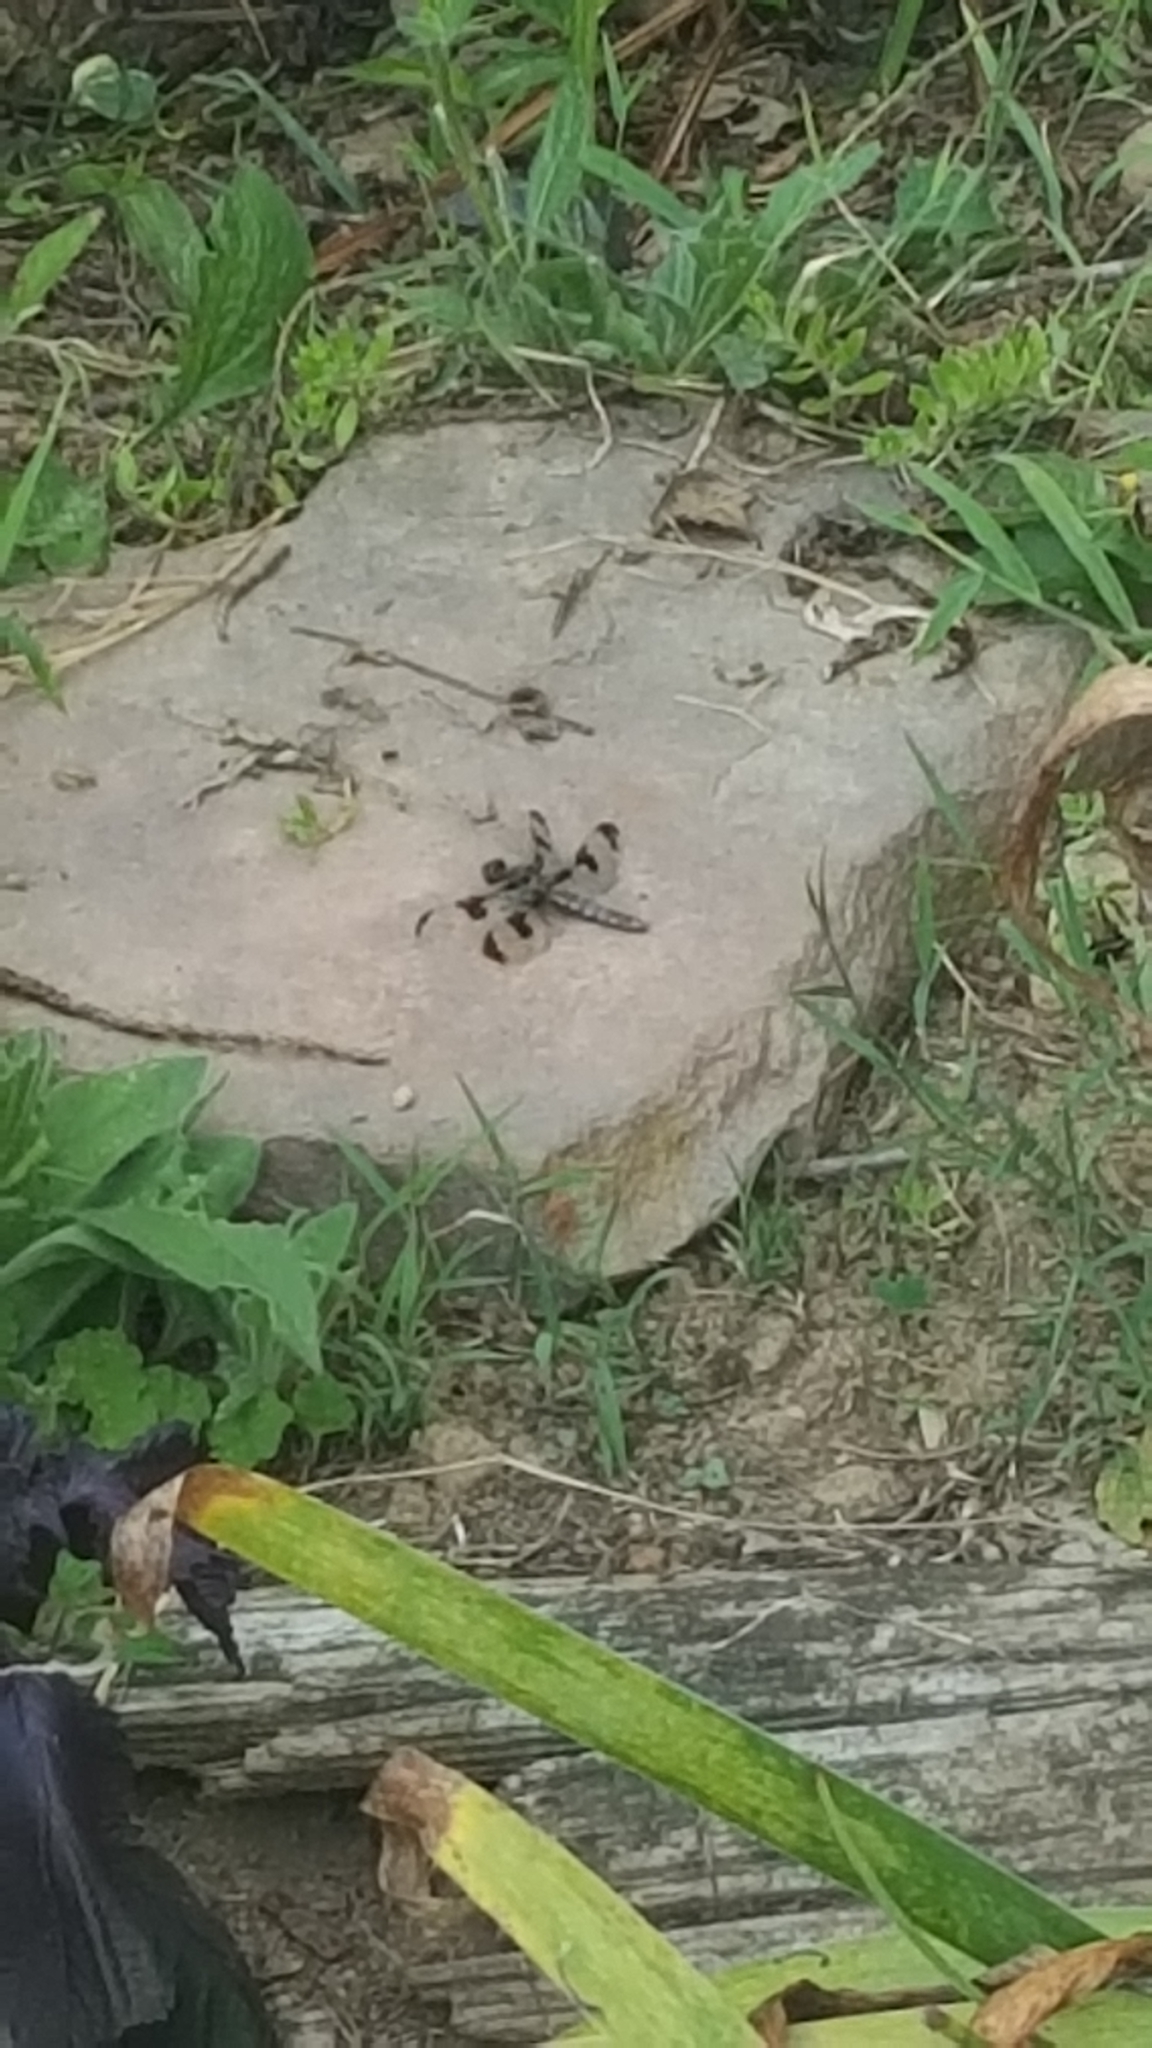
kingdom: Animalia
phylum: Arthropoda
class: Insecta
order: Odonata
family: Libellulidae
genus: Plathemis
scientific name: Plathemis lydia
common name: Common whitetail
